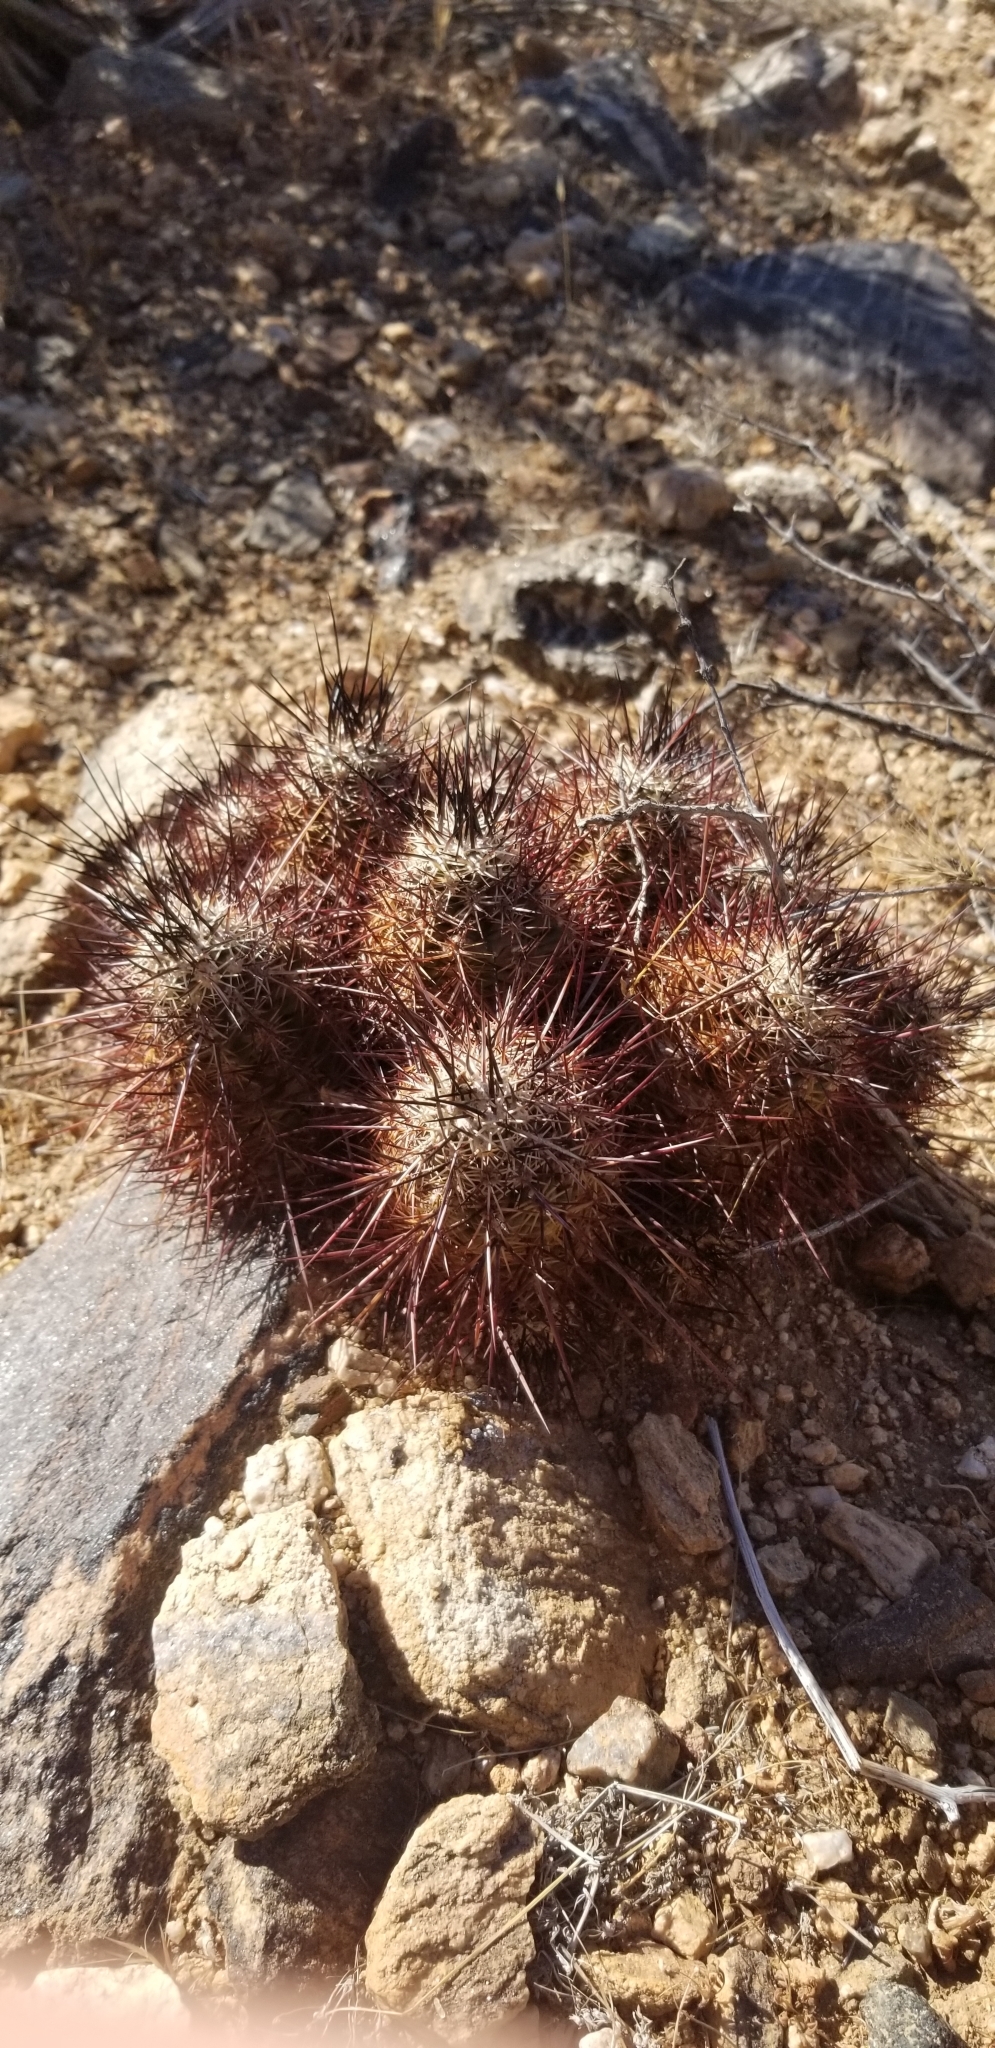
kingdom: Plantae
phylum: Tracheophyta
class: Magnoliopsida
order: Caryophyllales
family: Cactaceae
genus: Echinocereus
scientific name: Echinocereus engelmannii
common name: Engelmann's hedgehog cactus
